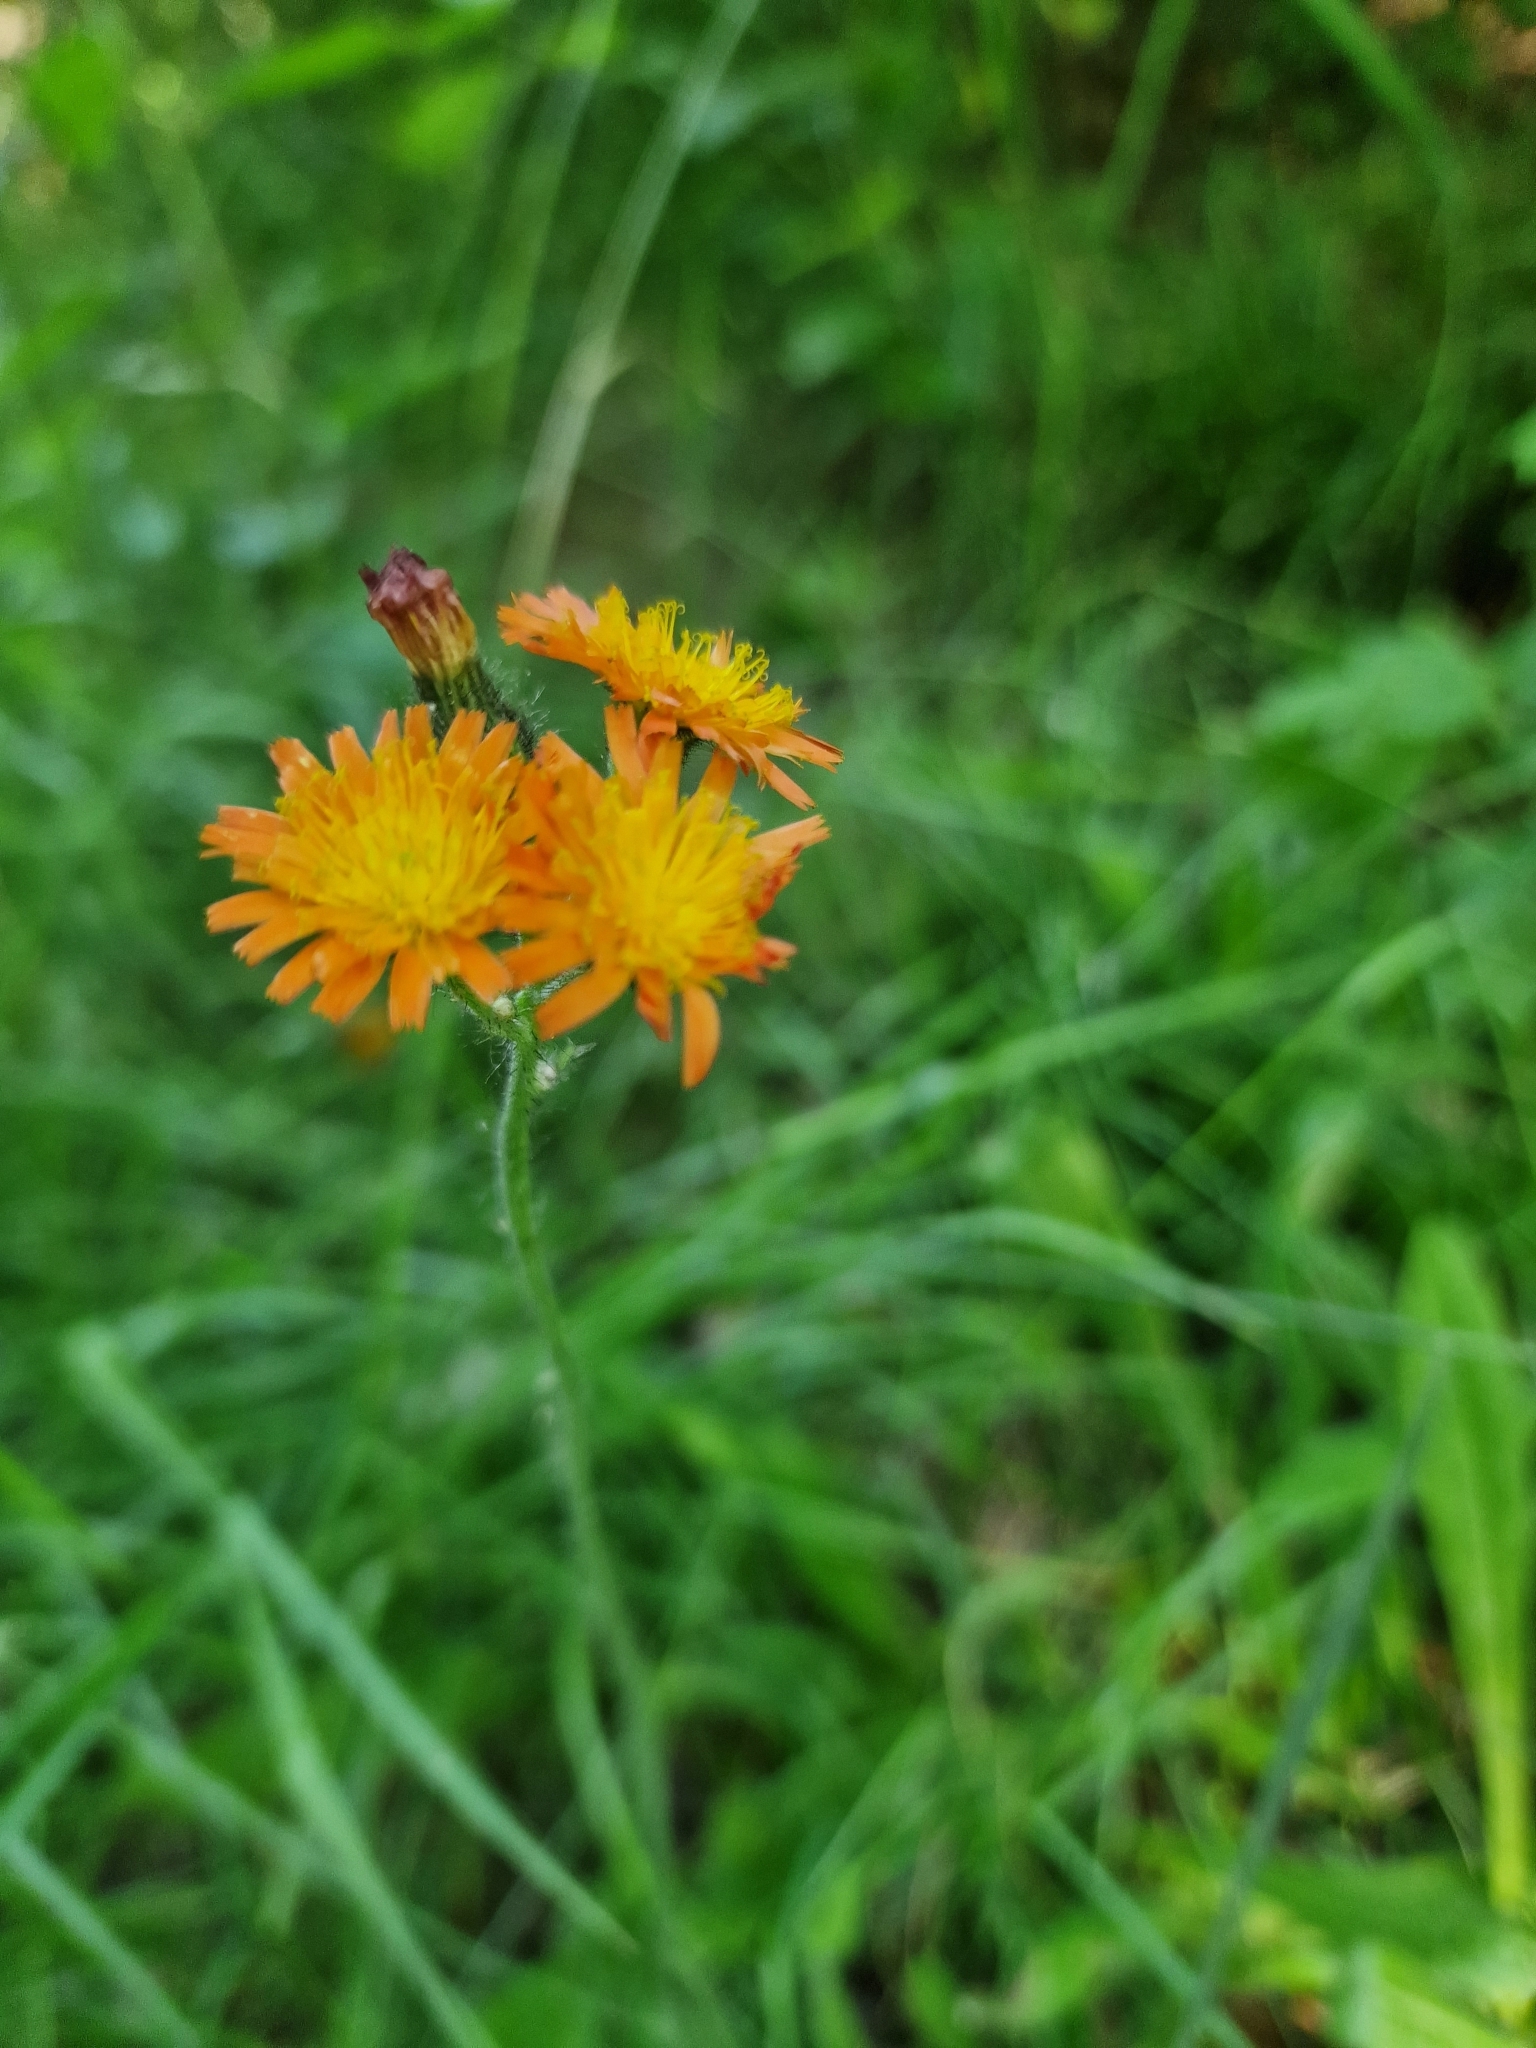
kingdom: Plantae
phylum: Tracheophyta
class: Magnoliopsida
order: Asterales
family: Asteraceae
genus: Pilosella
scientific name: Pilosella aurantiaca
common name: Fox-and-cubs
